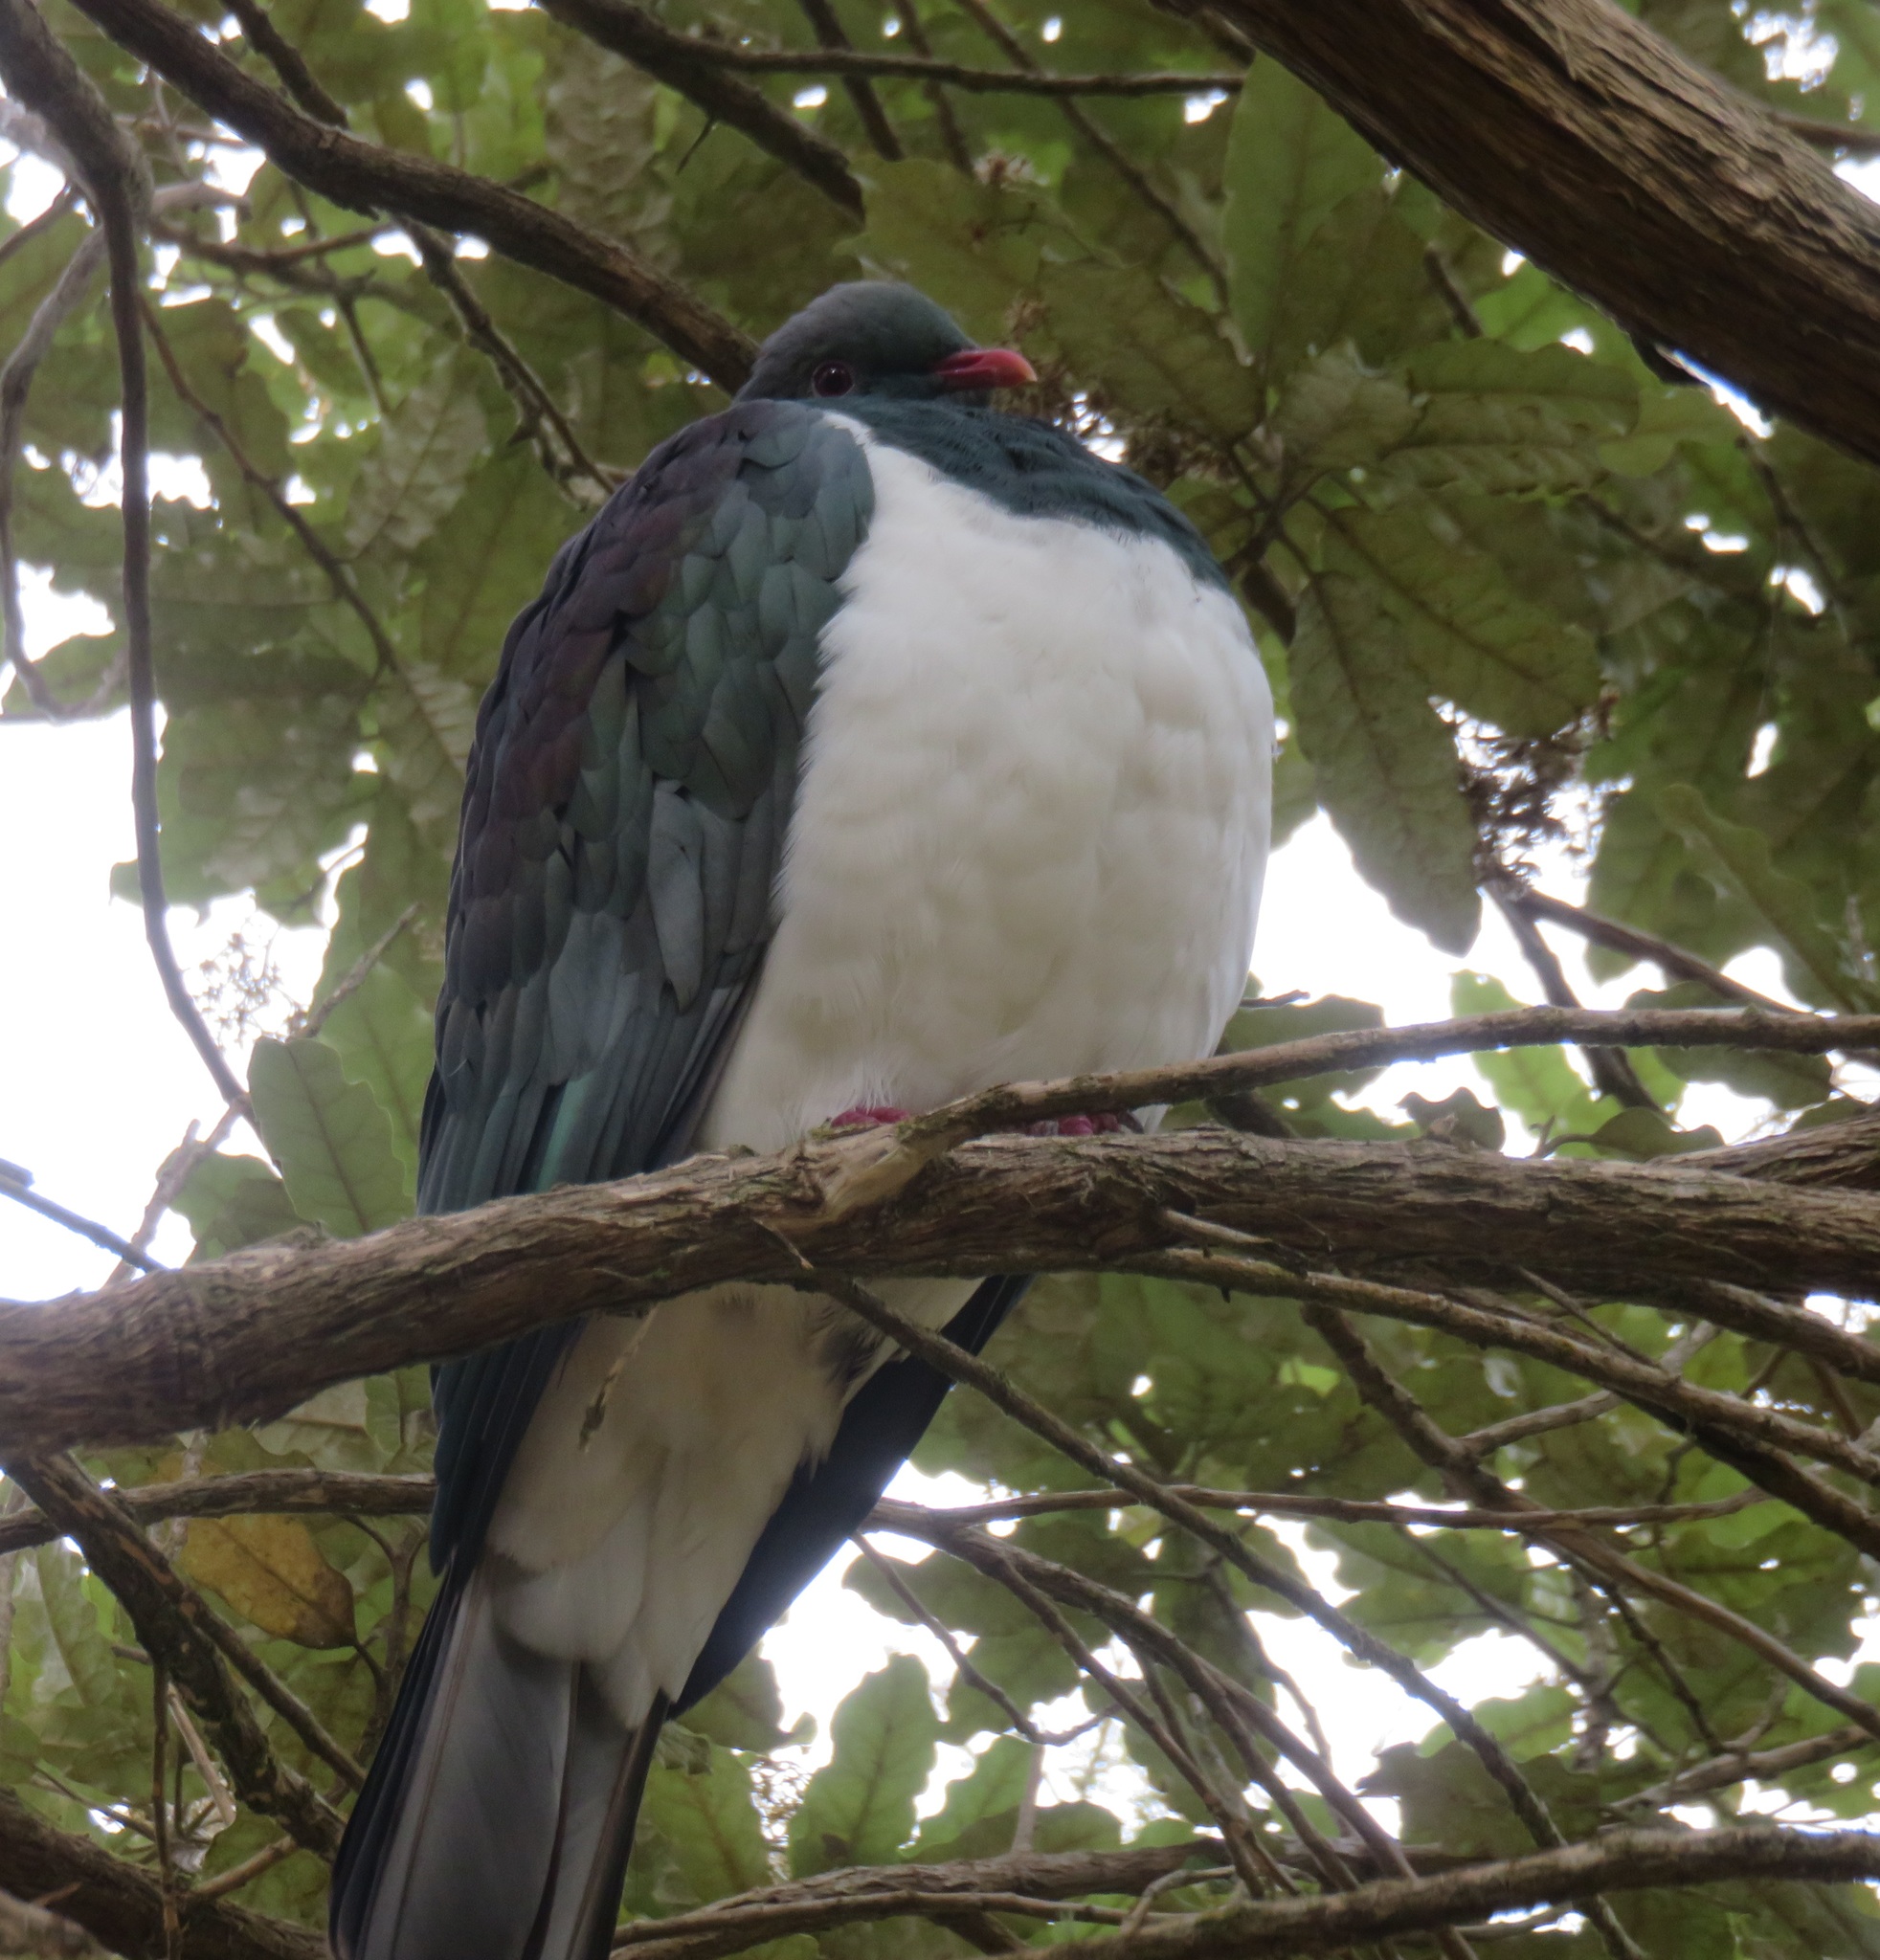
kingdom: Animalia
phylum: Chordata
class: Aves
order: Columbiformes
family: Columbidae
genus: Hemiphaga
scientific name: Hemiphaga novaeseelandiae
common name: New zealand pigeon
